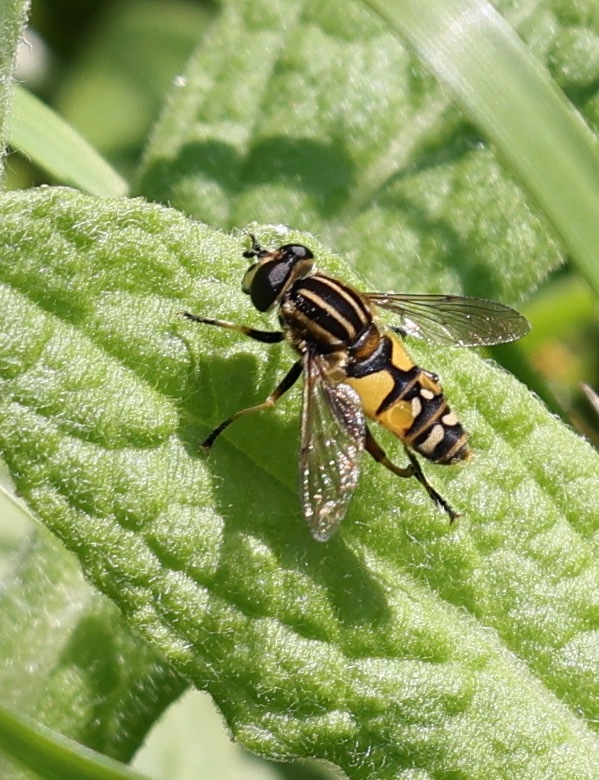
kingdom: Animalia
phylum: Arthropoda
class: Insecta
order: Diptera
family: Syrphidae
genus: Helophilus
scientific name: Helophilus pendulus
